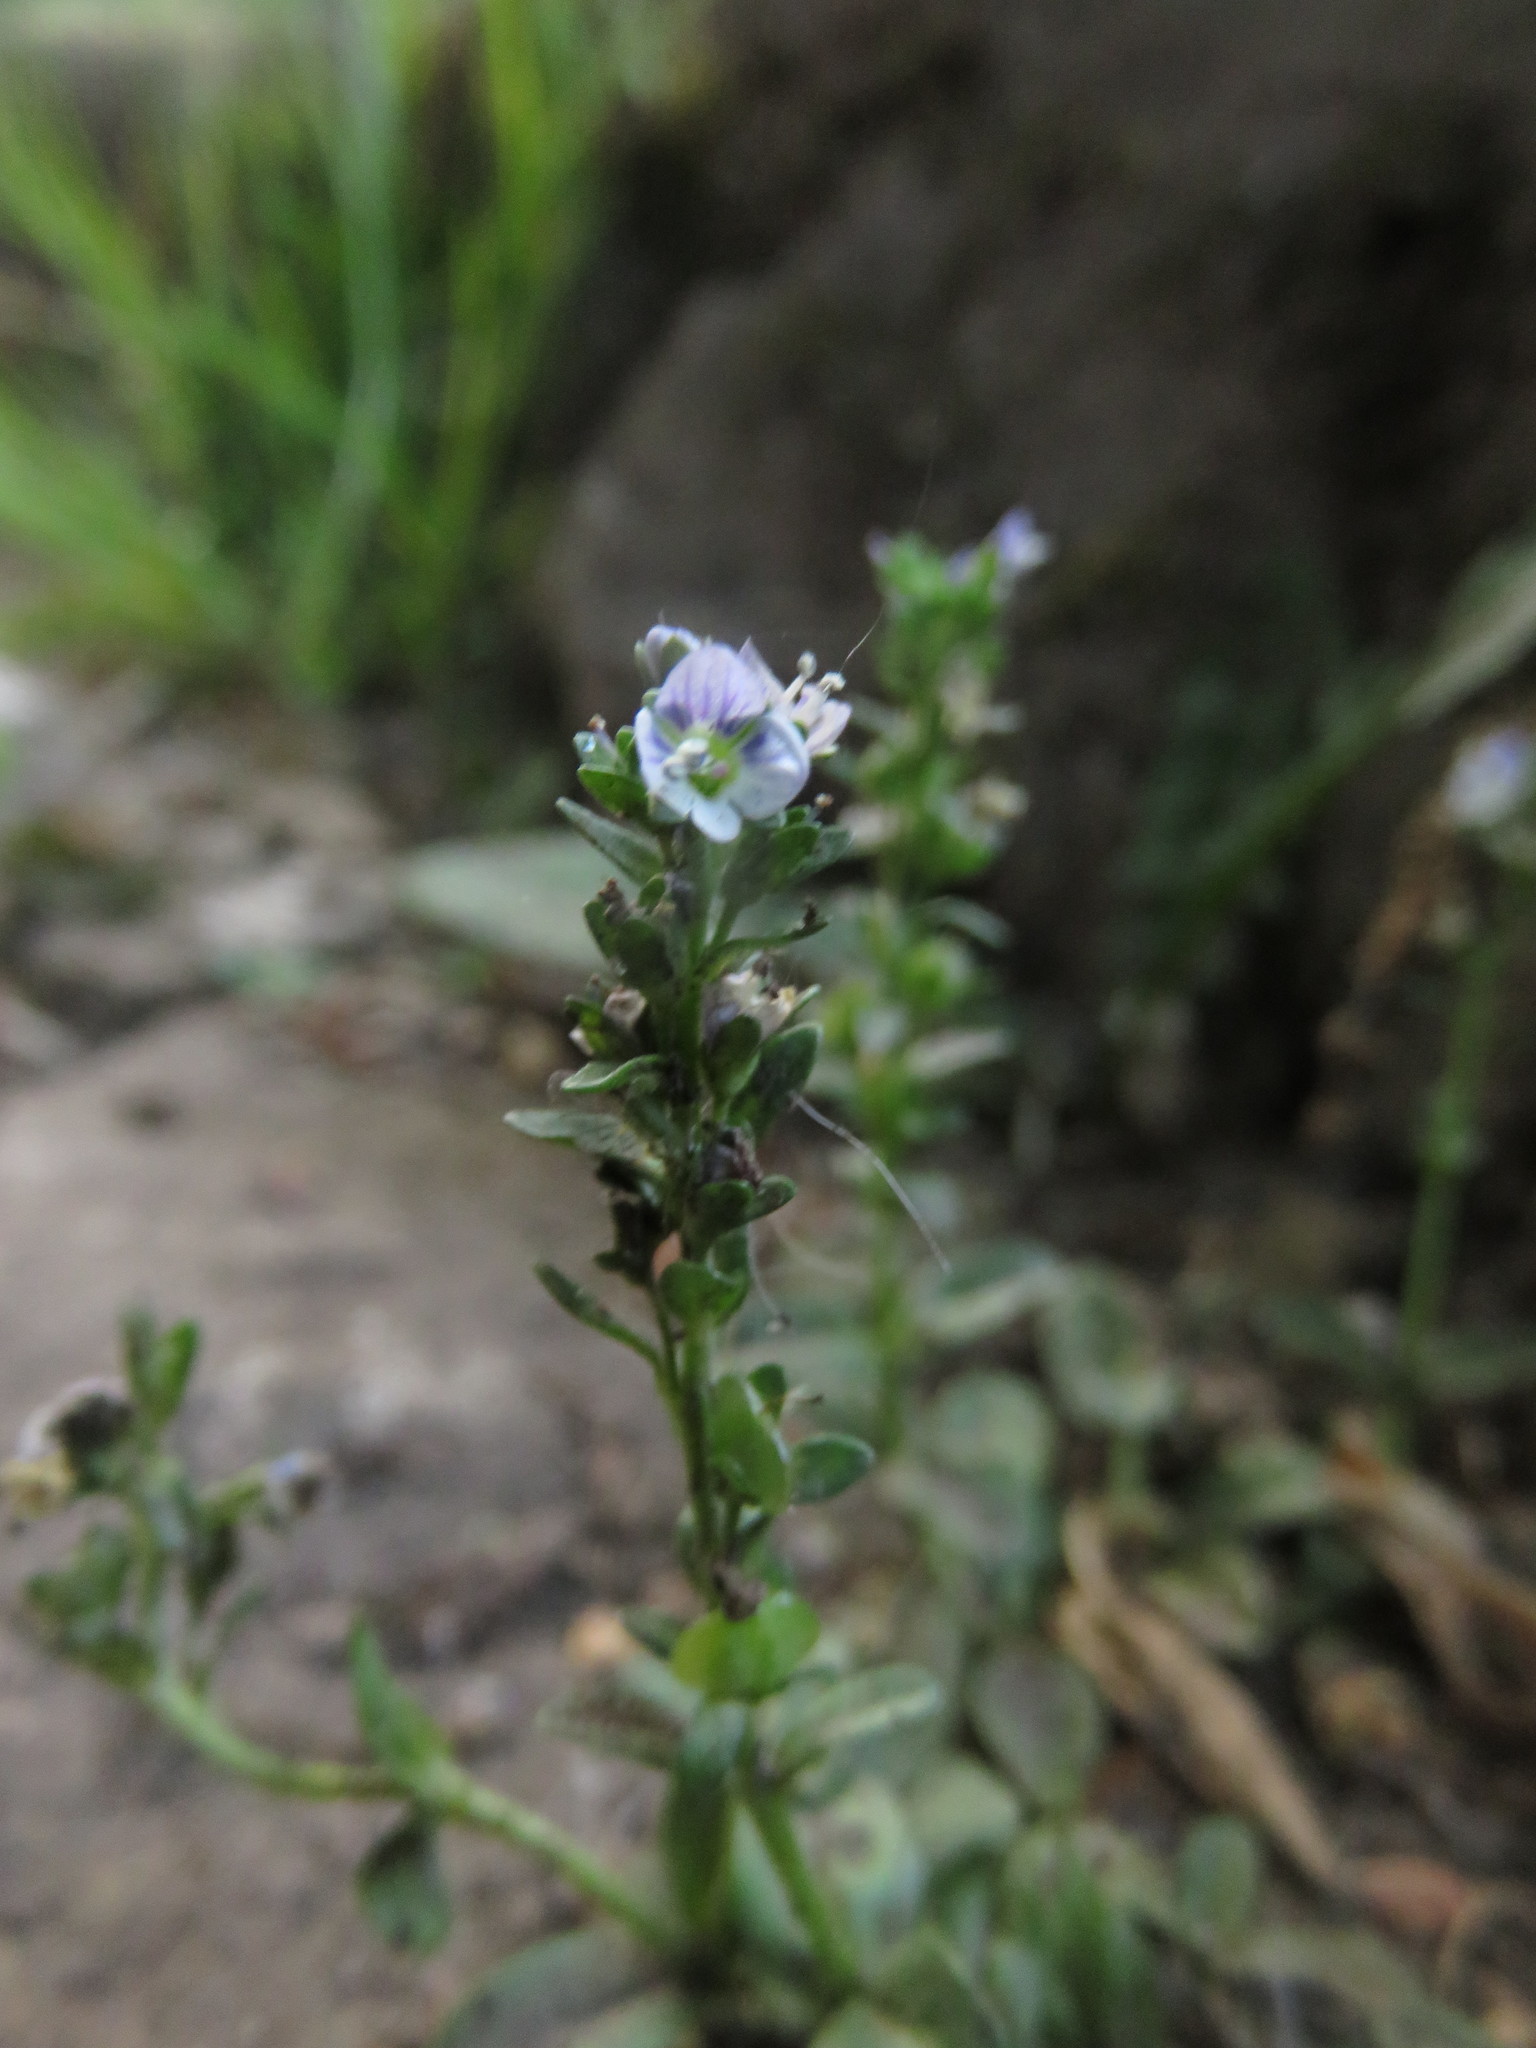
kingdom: Plantae
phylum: Tracheophyta
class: Magnoliopsida
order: Lamiales
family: Plantaginaceae
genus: Veronica
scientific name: Veronica serpyllifolia
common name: Thyme-leaved speedwell
